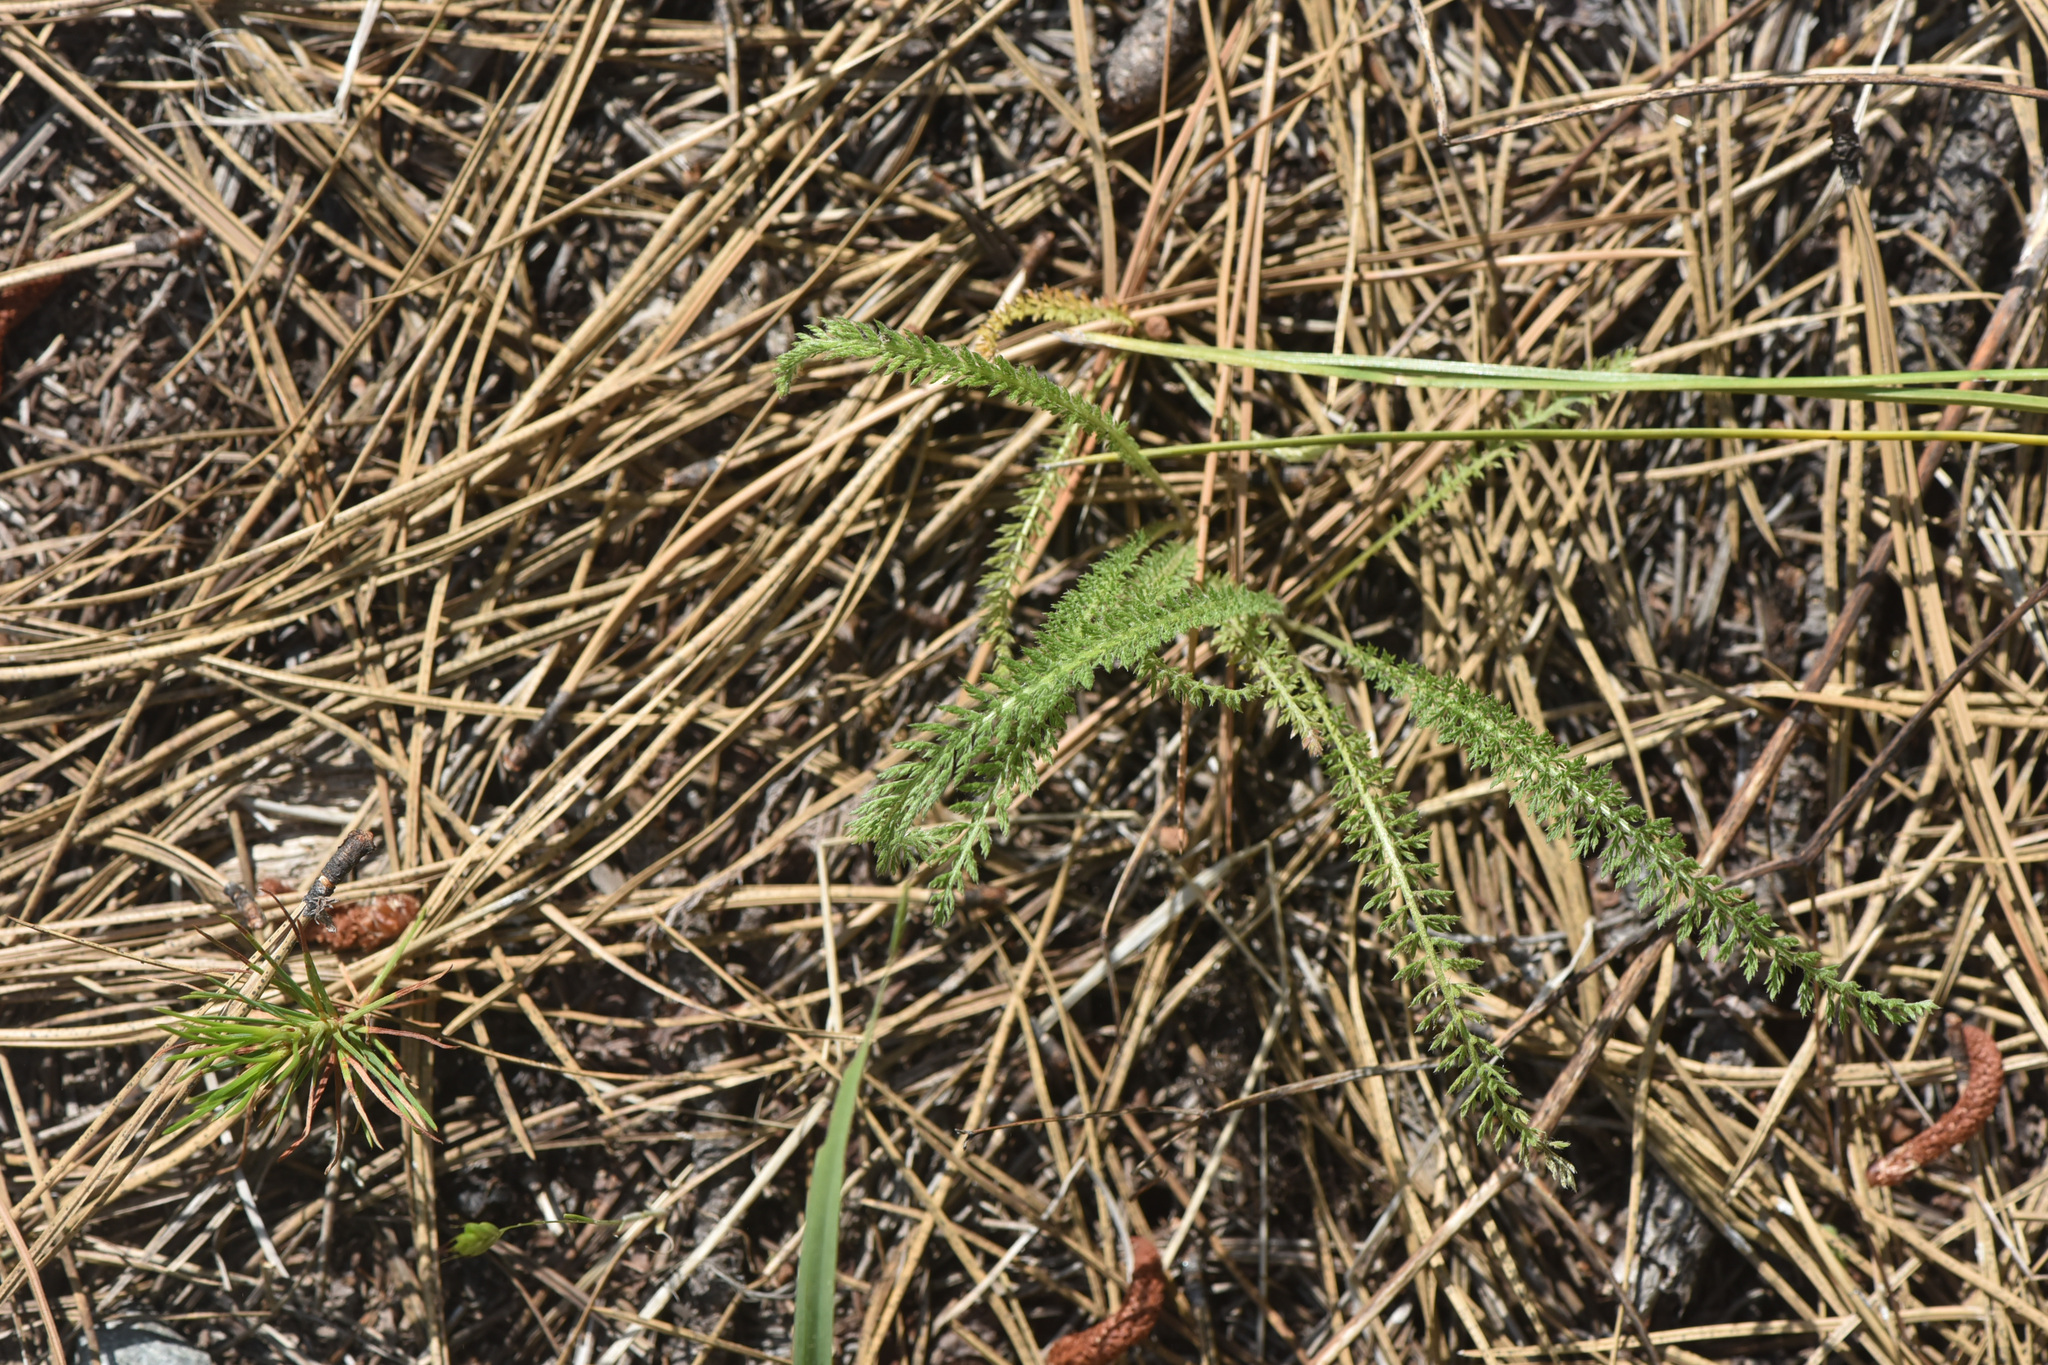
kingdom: Plantae
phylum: Tracheophyta
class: Magnoliopsida
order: Asterales
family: Asteraceae
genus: Achillea
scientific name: Achillea millefolium
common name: Yarrow
